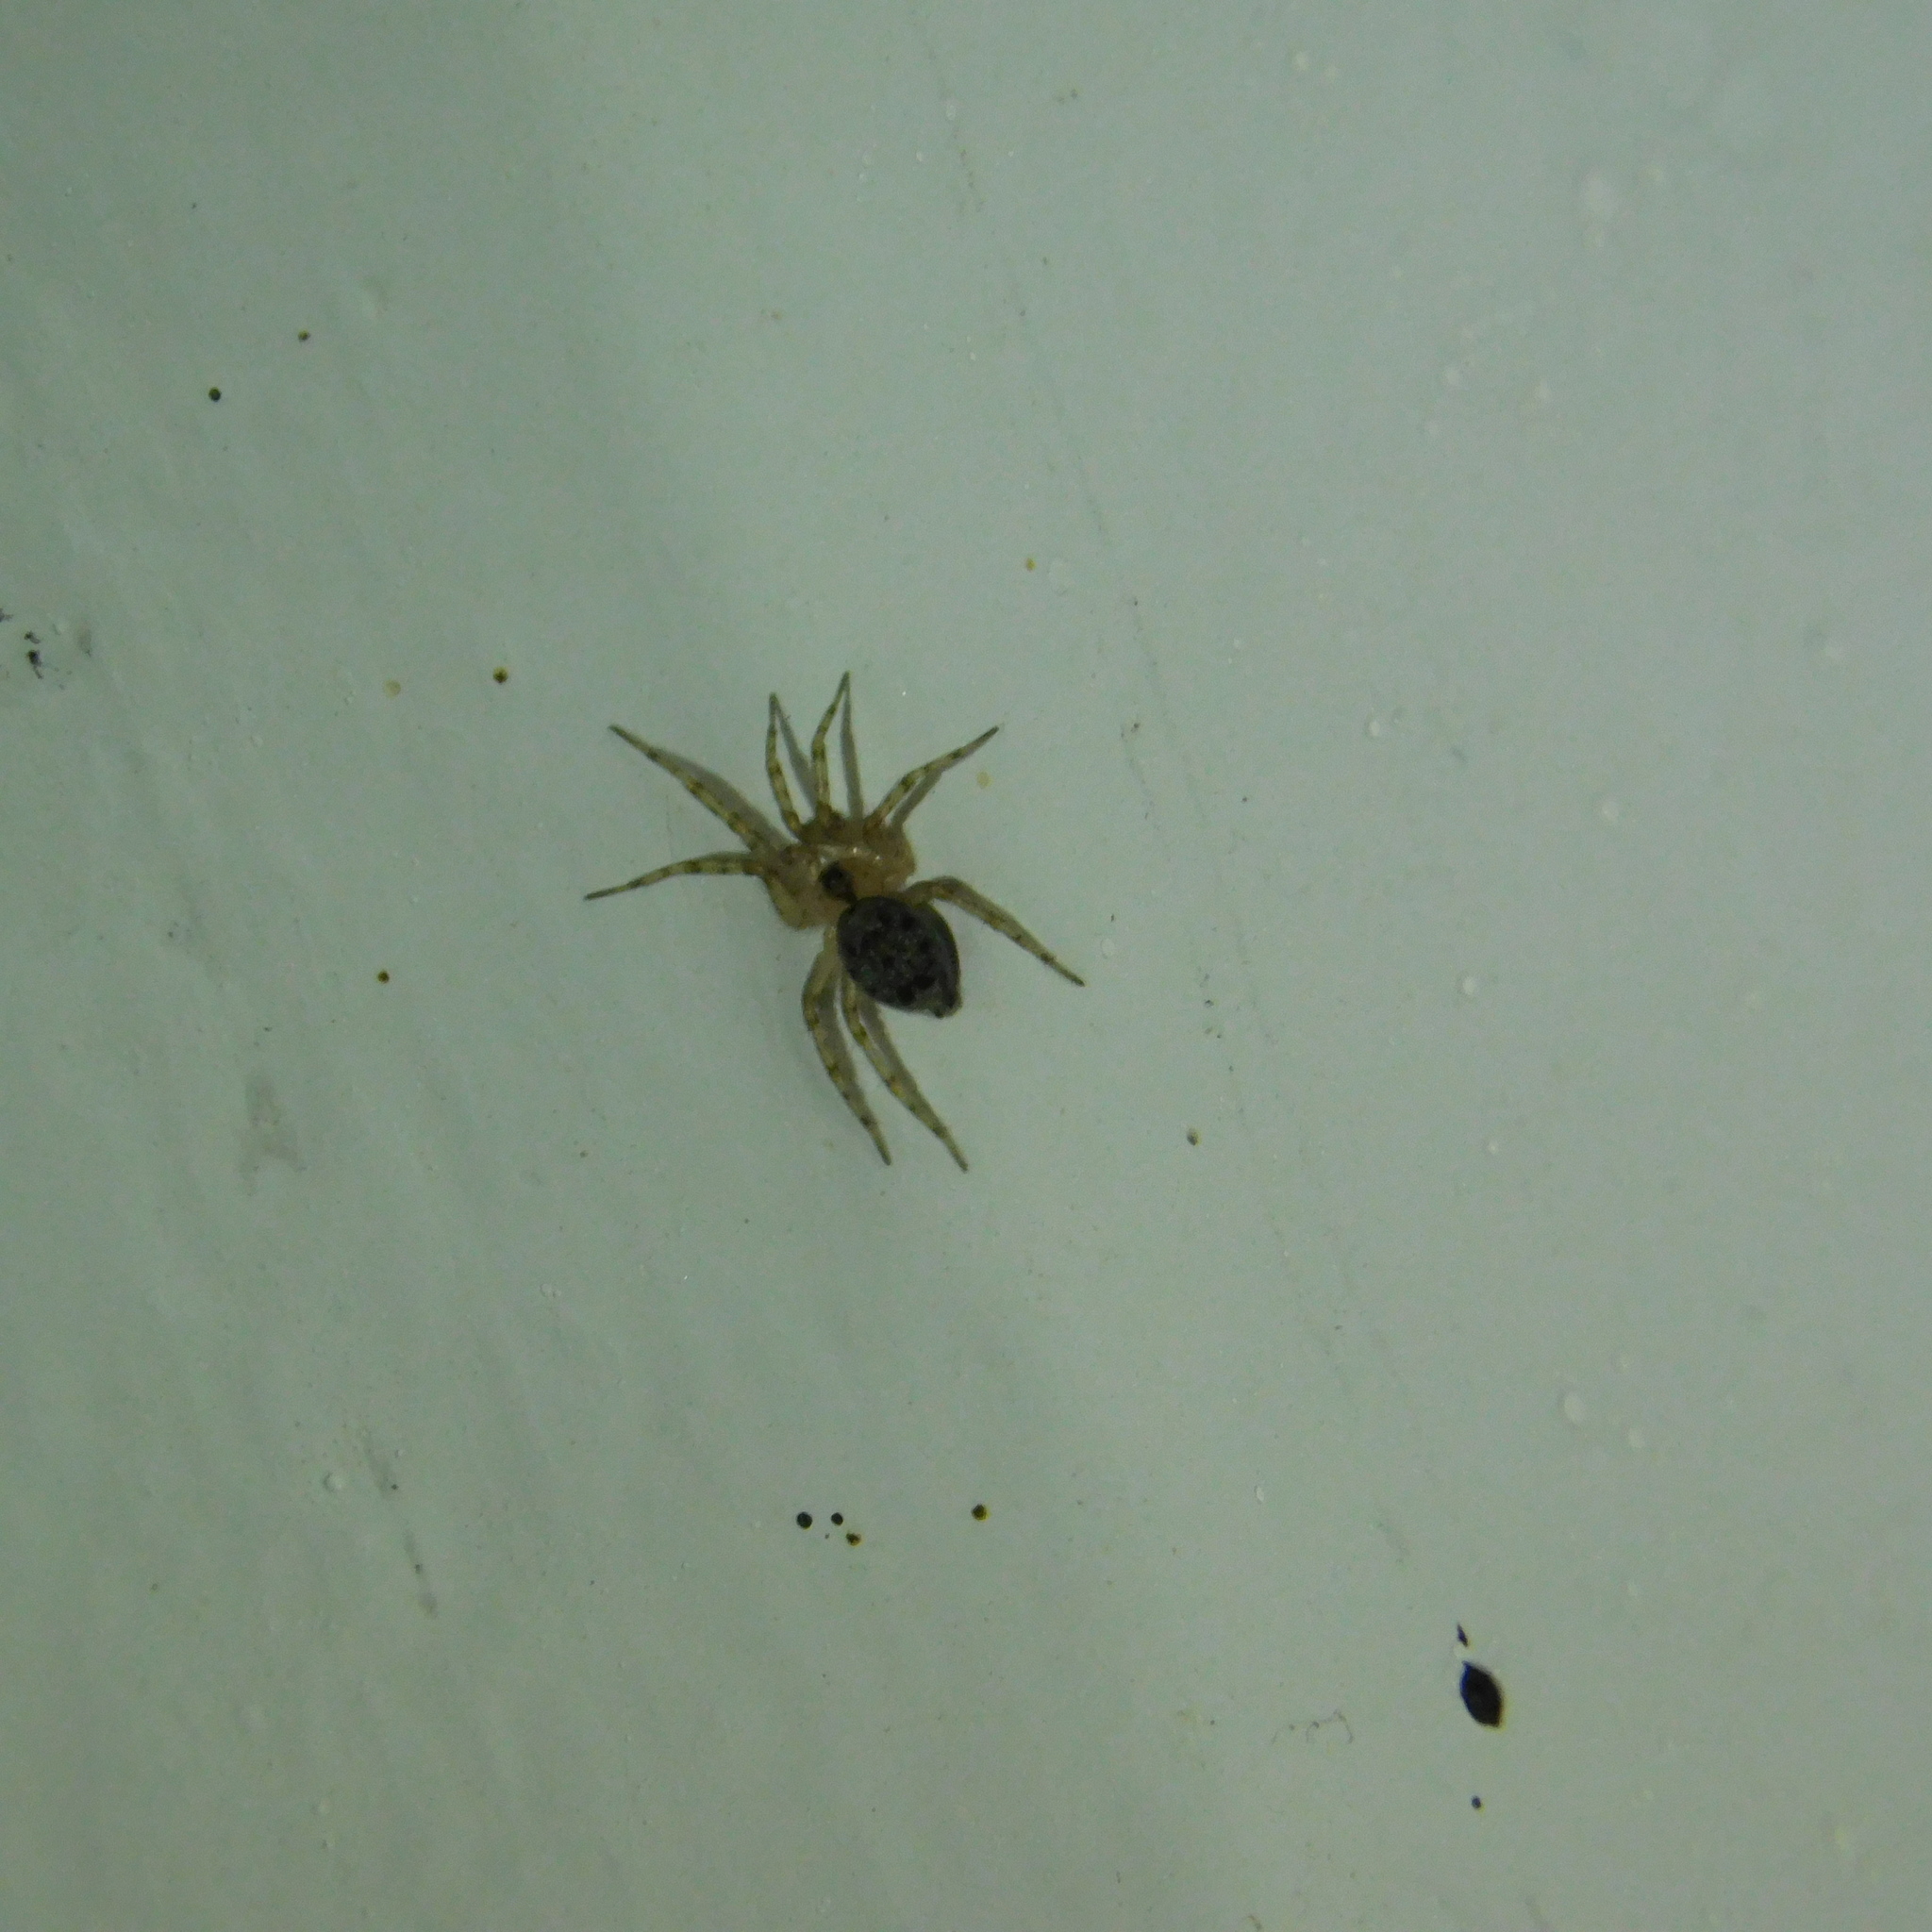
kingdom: Animalia
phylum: Arthropoda
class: Arachnida
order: Araneae
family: Oecobiidae
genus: Oecobius
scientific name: Oecobius navus
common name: Flatmesh weaver
